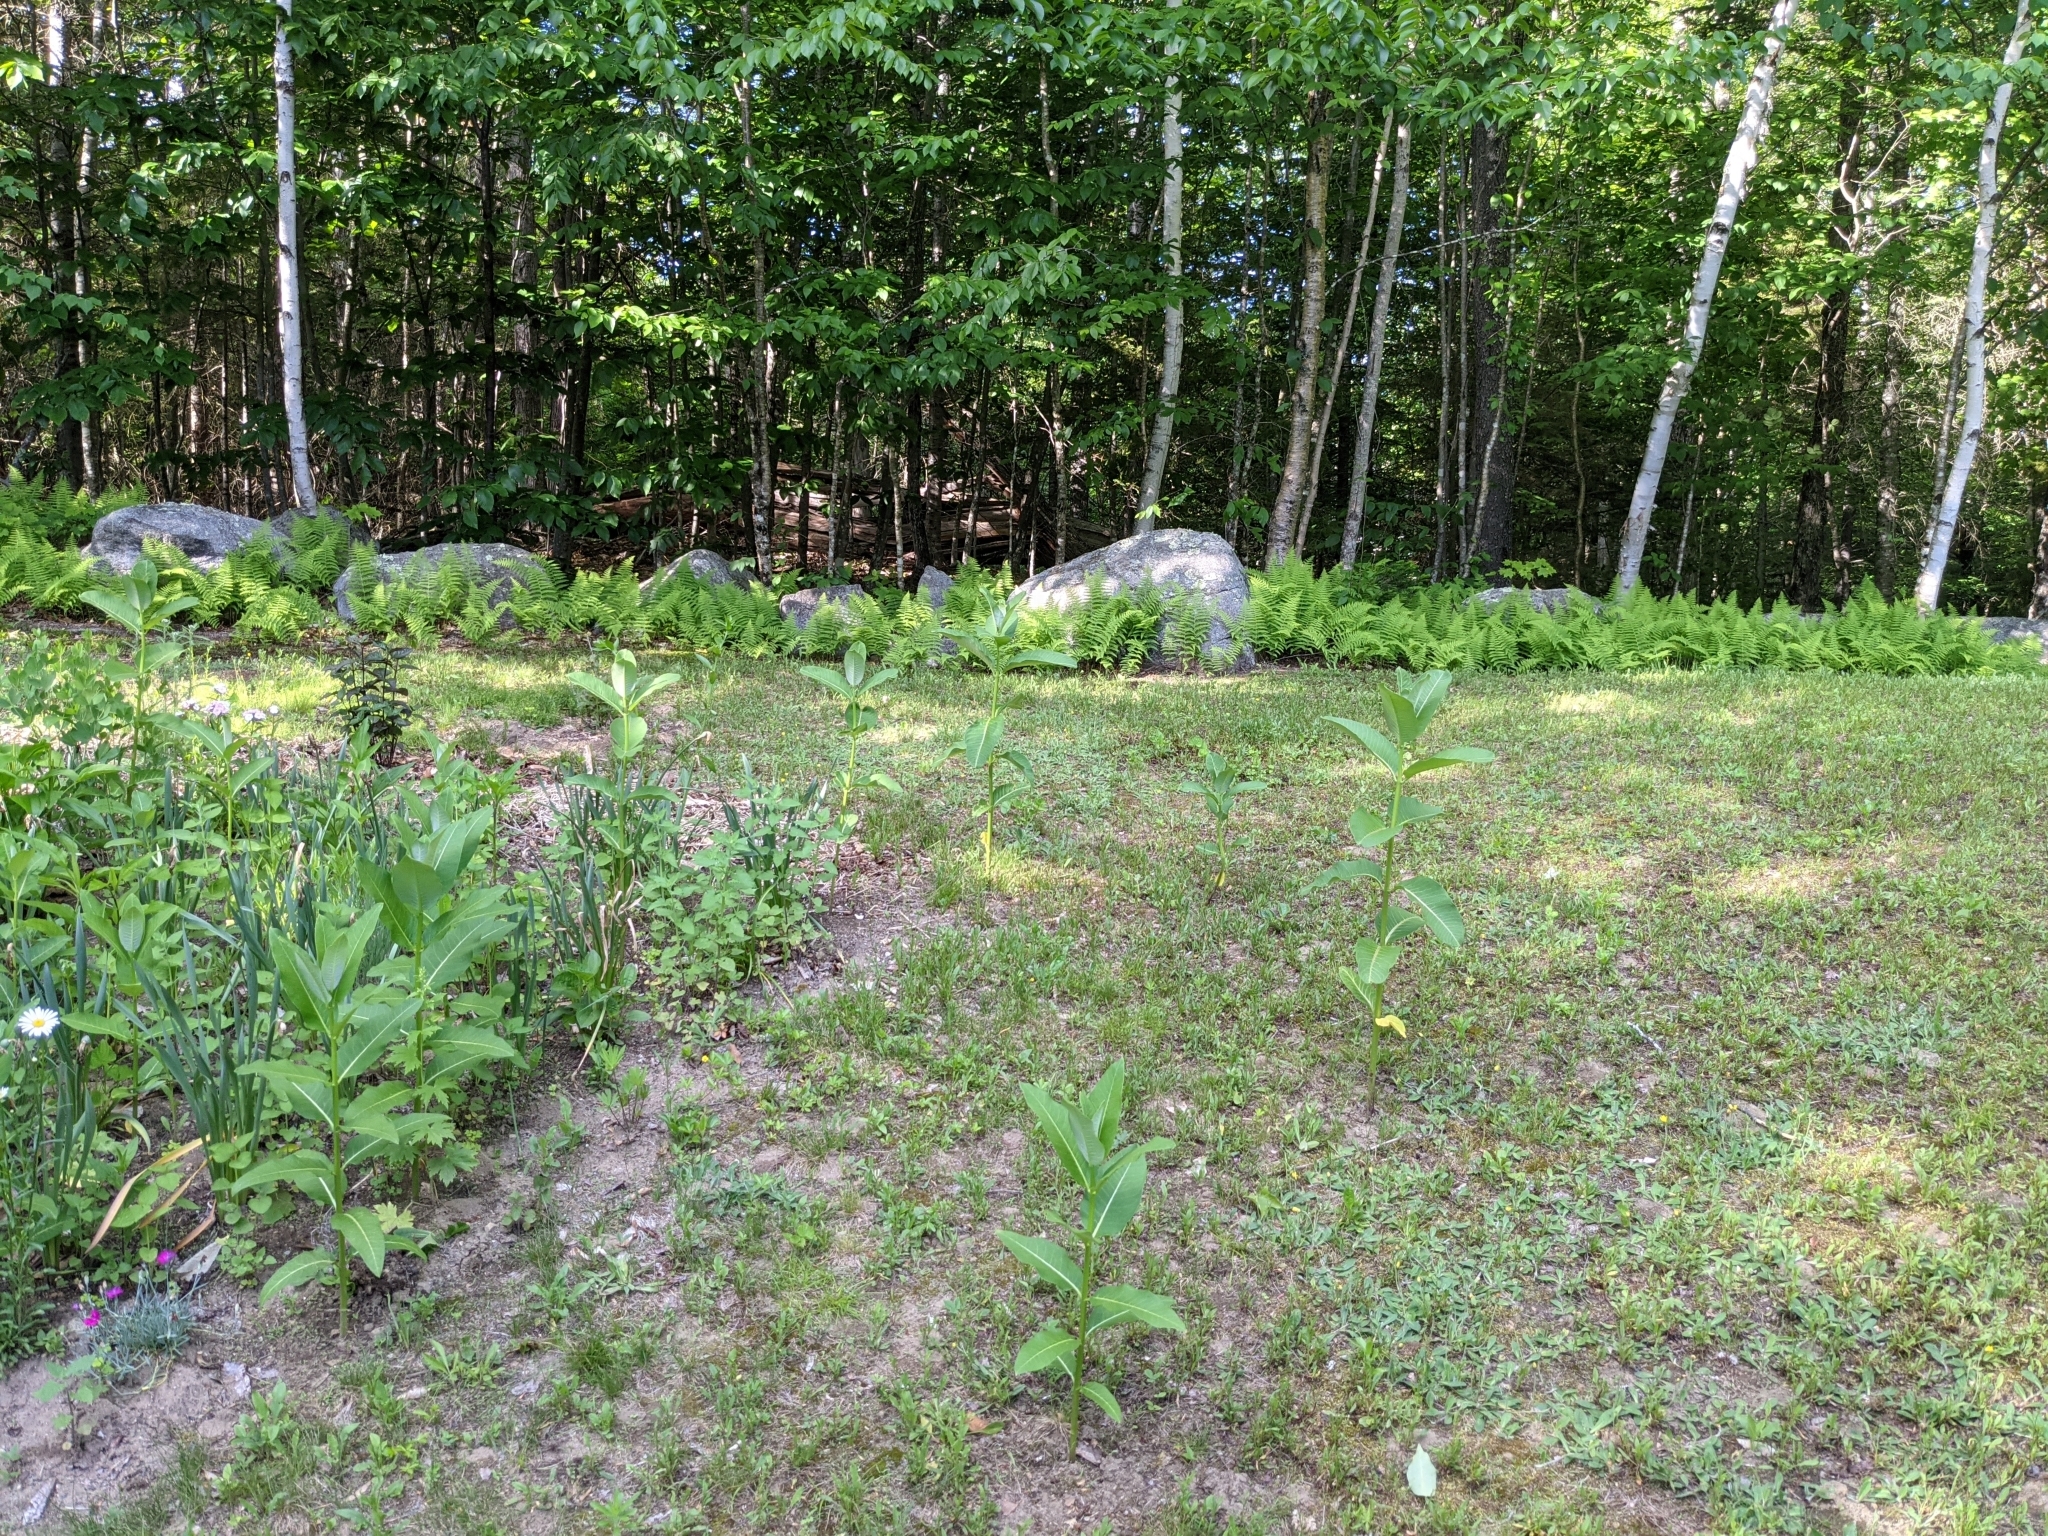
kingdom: Plantae
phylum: Tracheophyta
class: Magnoliopsida
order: Gentianales
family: Apocynaceae
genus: Asclepias
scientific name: Asclepias syriaca
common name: Common milkweed
